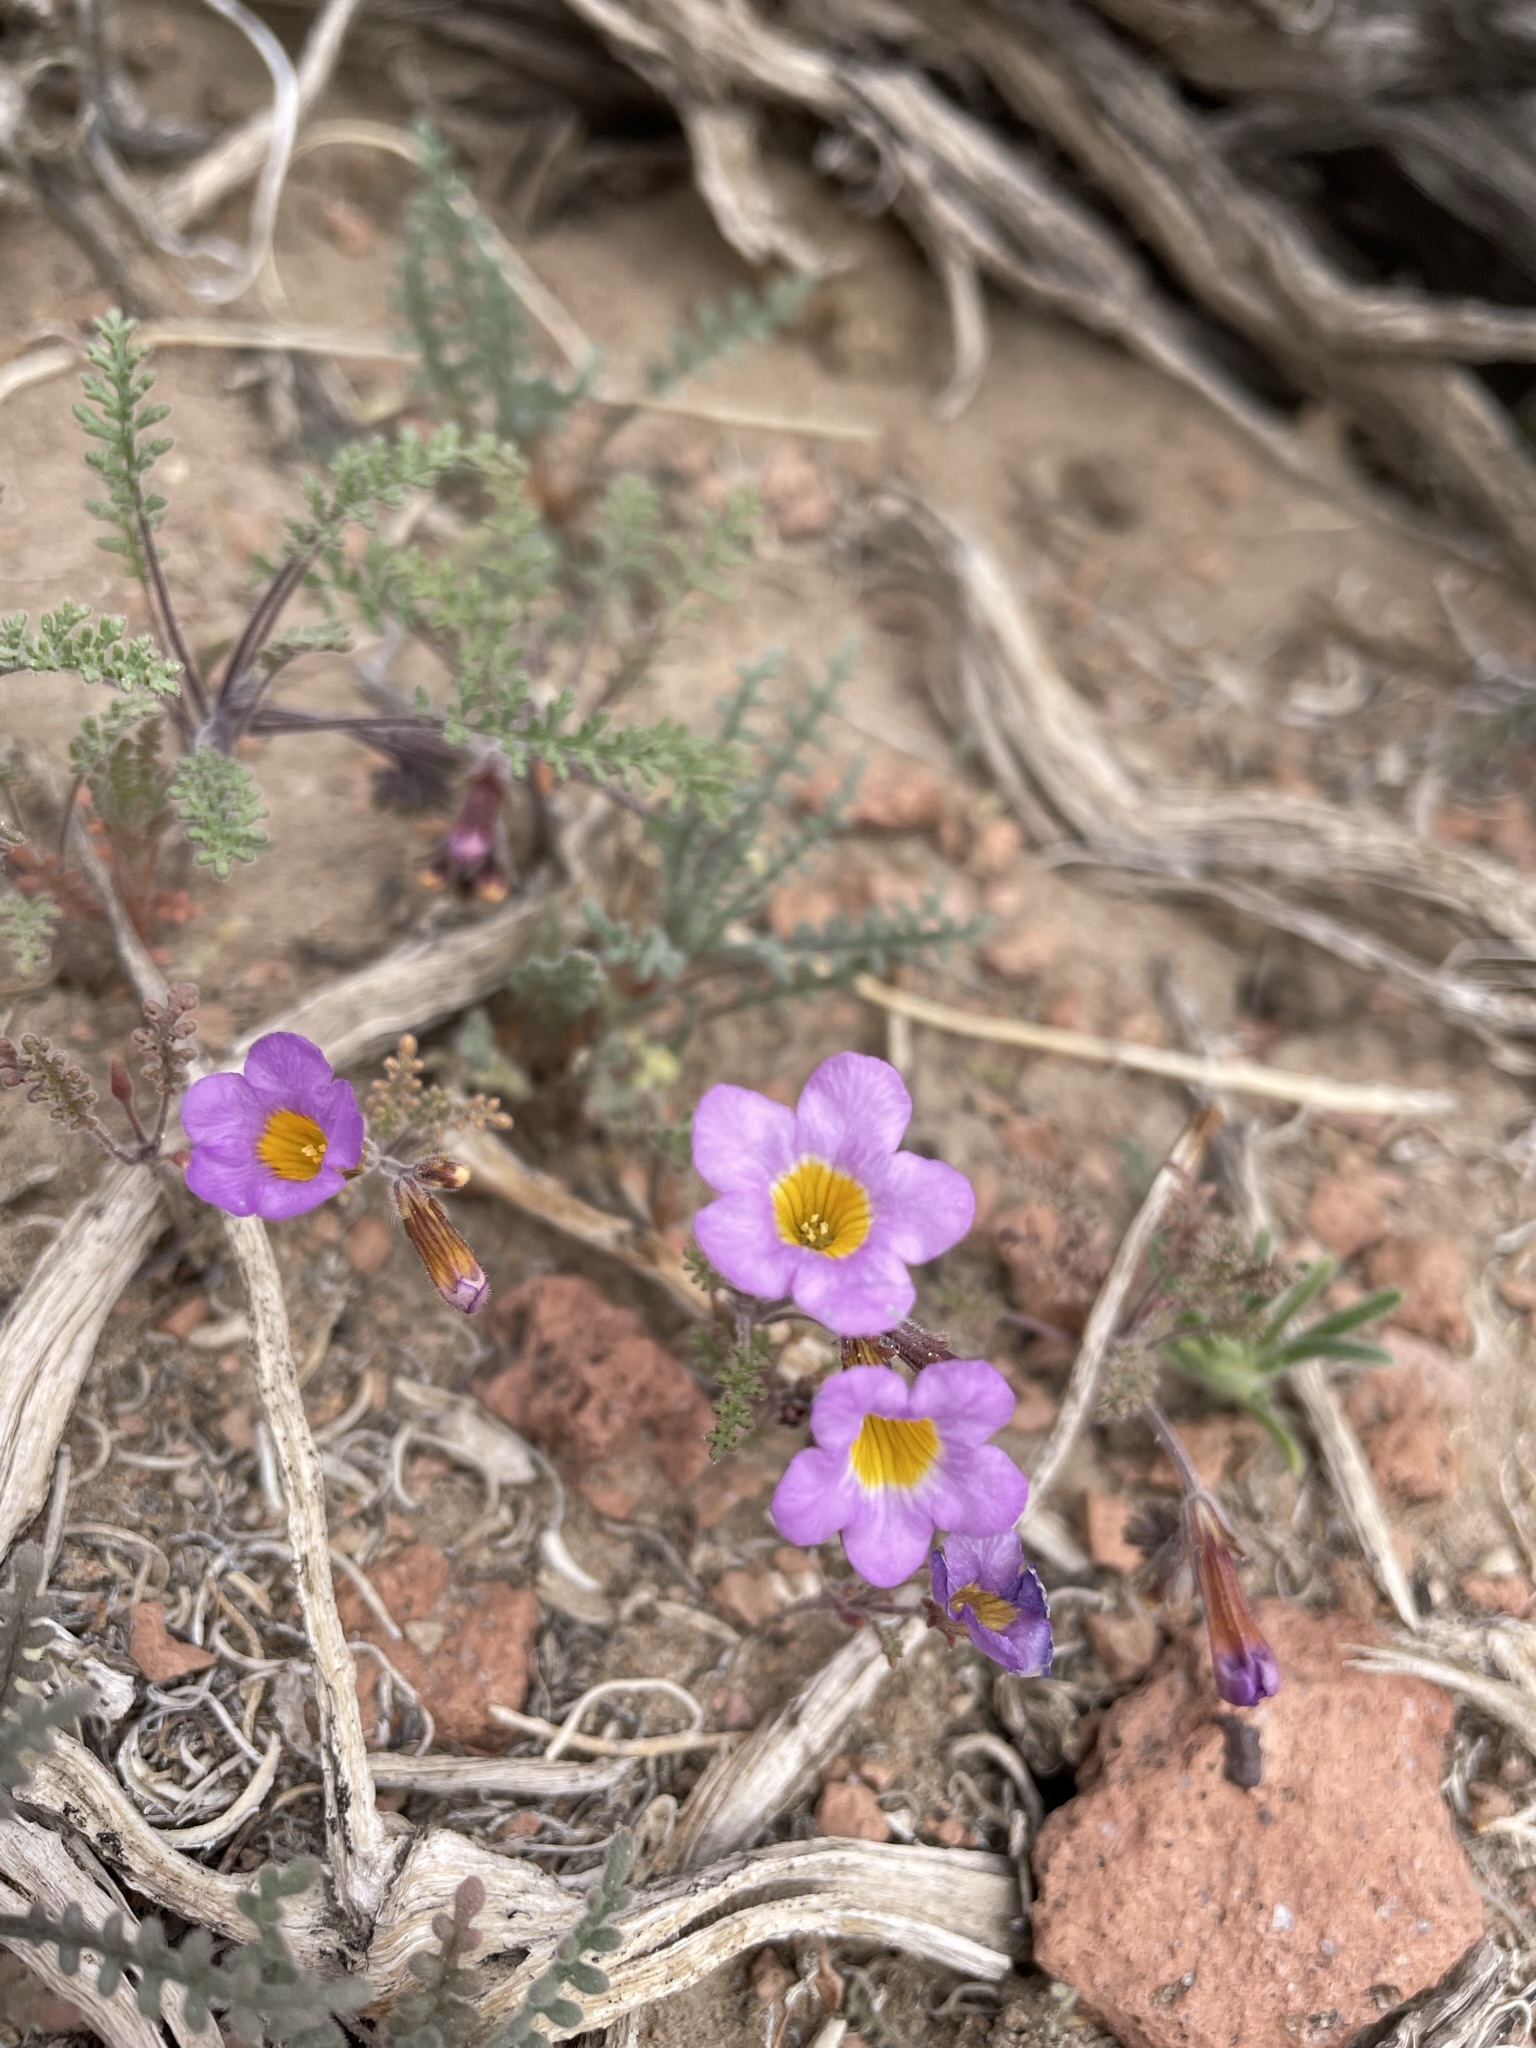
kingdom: Plantae
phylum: Tracheophyta
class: Magnoliopsida
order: Boraginales
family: Hydrophyllaceae
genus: Phacelia
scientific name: Phacelia bicolor
